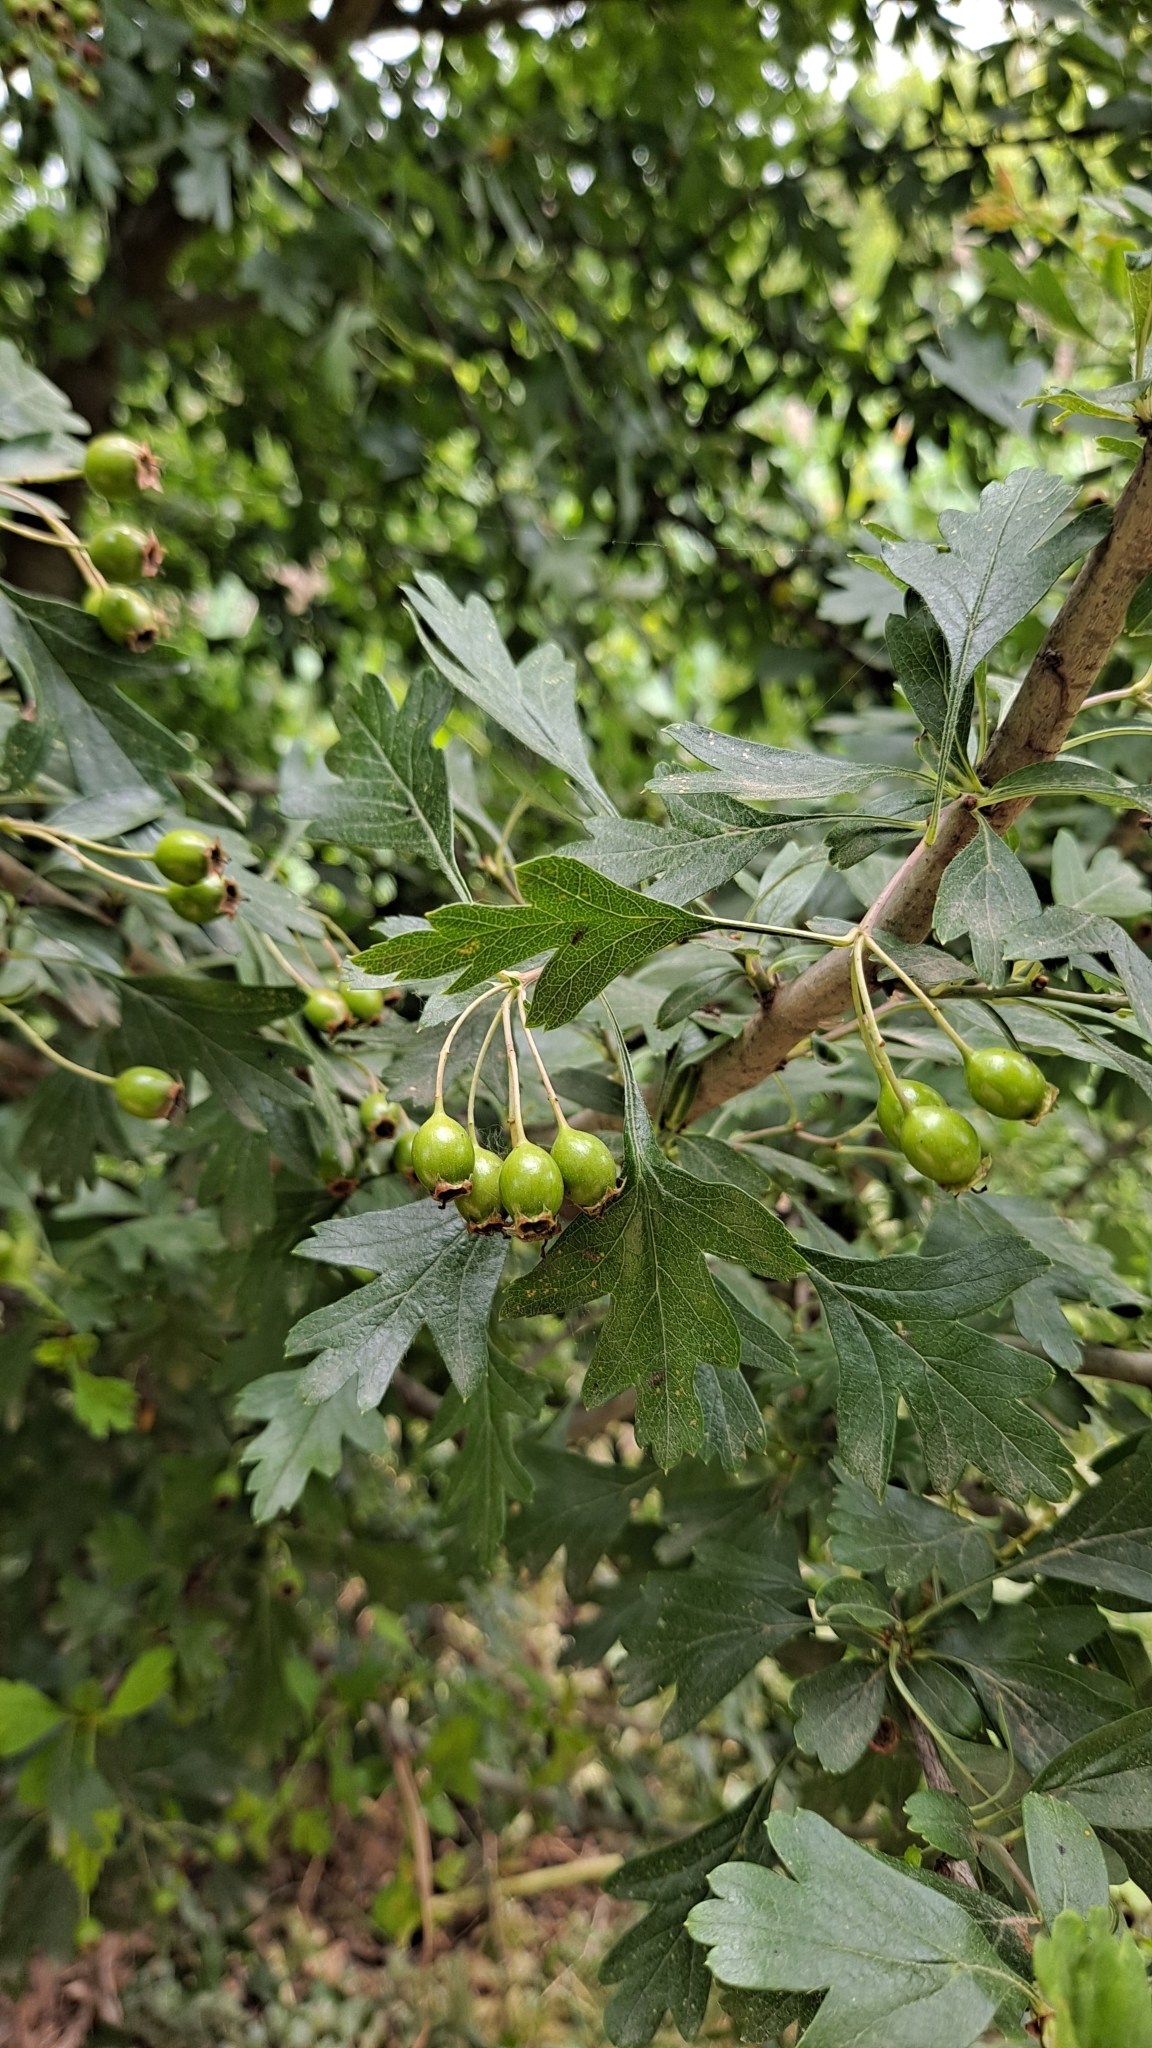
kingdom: Plantae
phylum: Tracheophyta
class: Magnoliopsida
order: Rosales
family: Rosaceae
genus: Crataegus
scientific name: Crataegus monogyna
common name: Hawthorn
